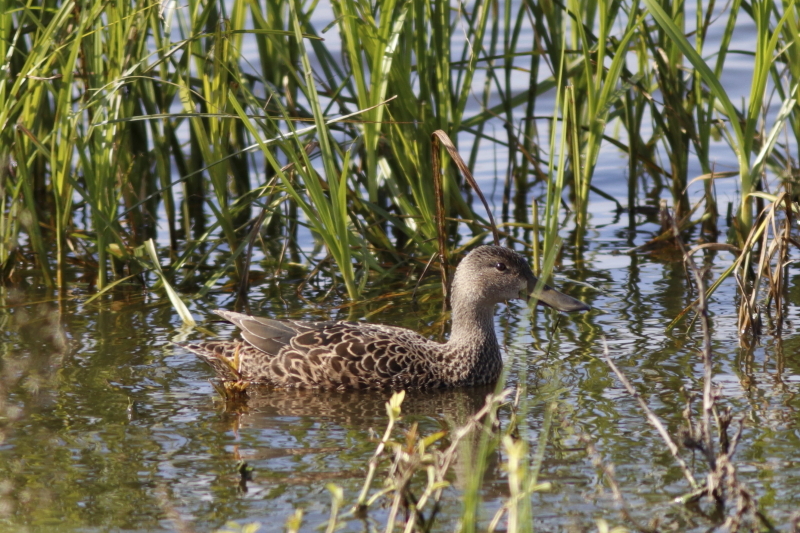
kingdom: Animalia
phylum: Chordata
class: Aves
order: Anseriformes
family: Anatidae
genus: Spatula
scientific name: Spatula smithii
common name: Cape shoveler
